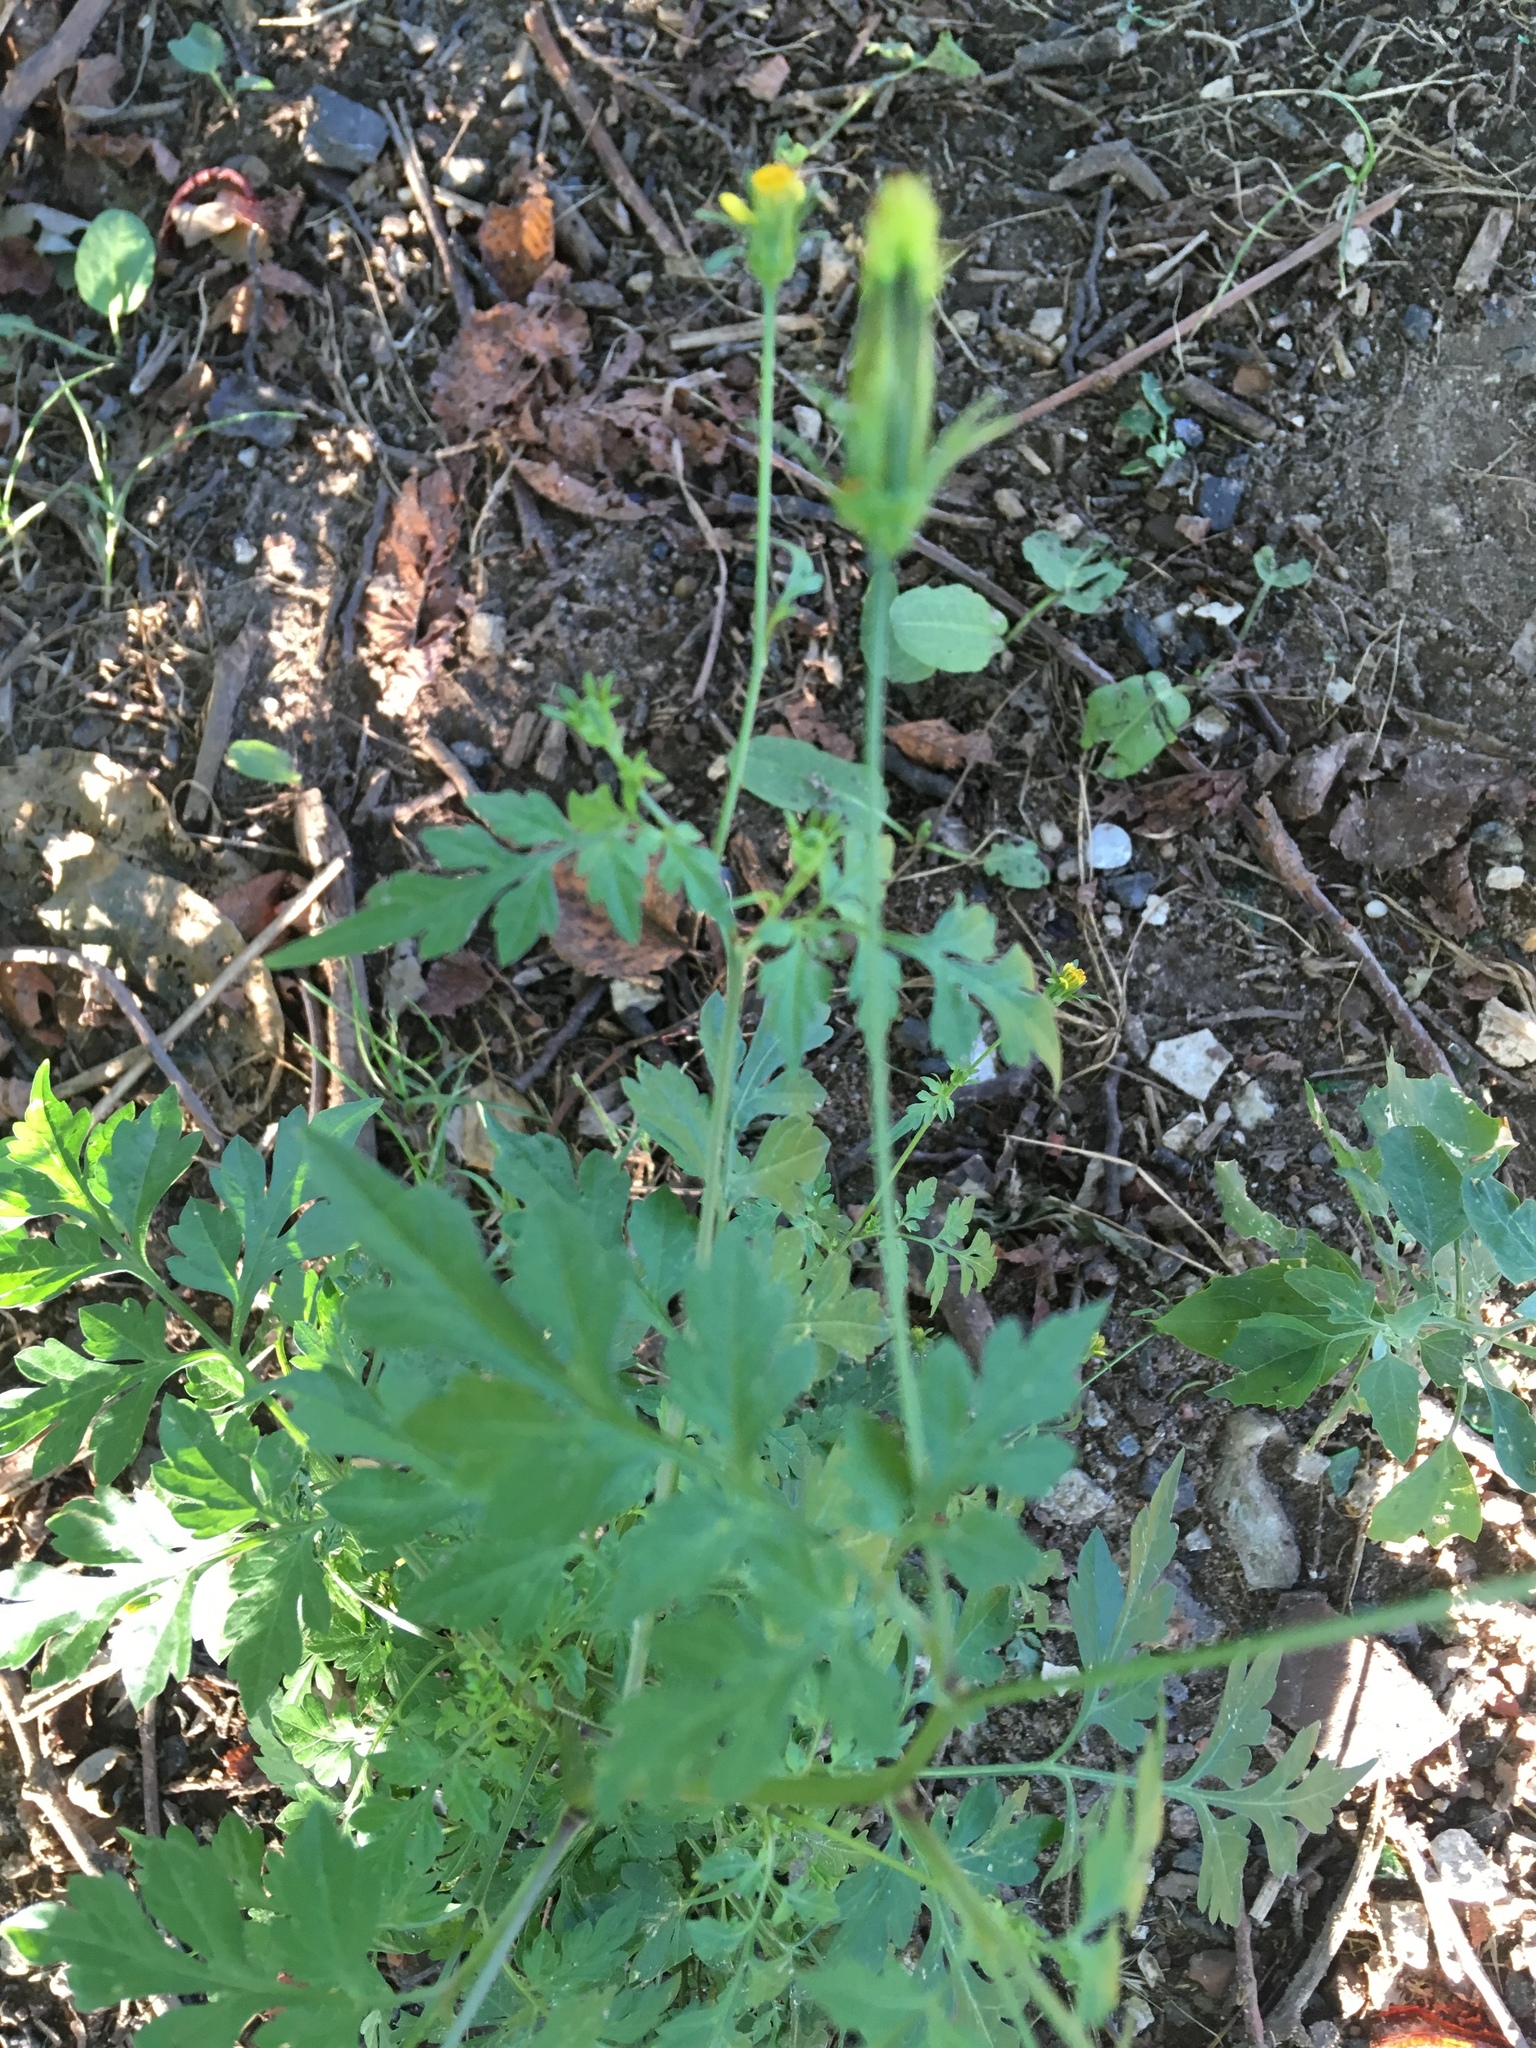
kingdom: Plantae
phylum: Tracheophyta
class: Magnoliopsida
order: Asterales
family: Asteraceae
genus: Bidens
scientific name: Bidens bipinnata
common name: Spanish-needles
